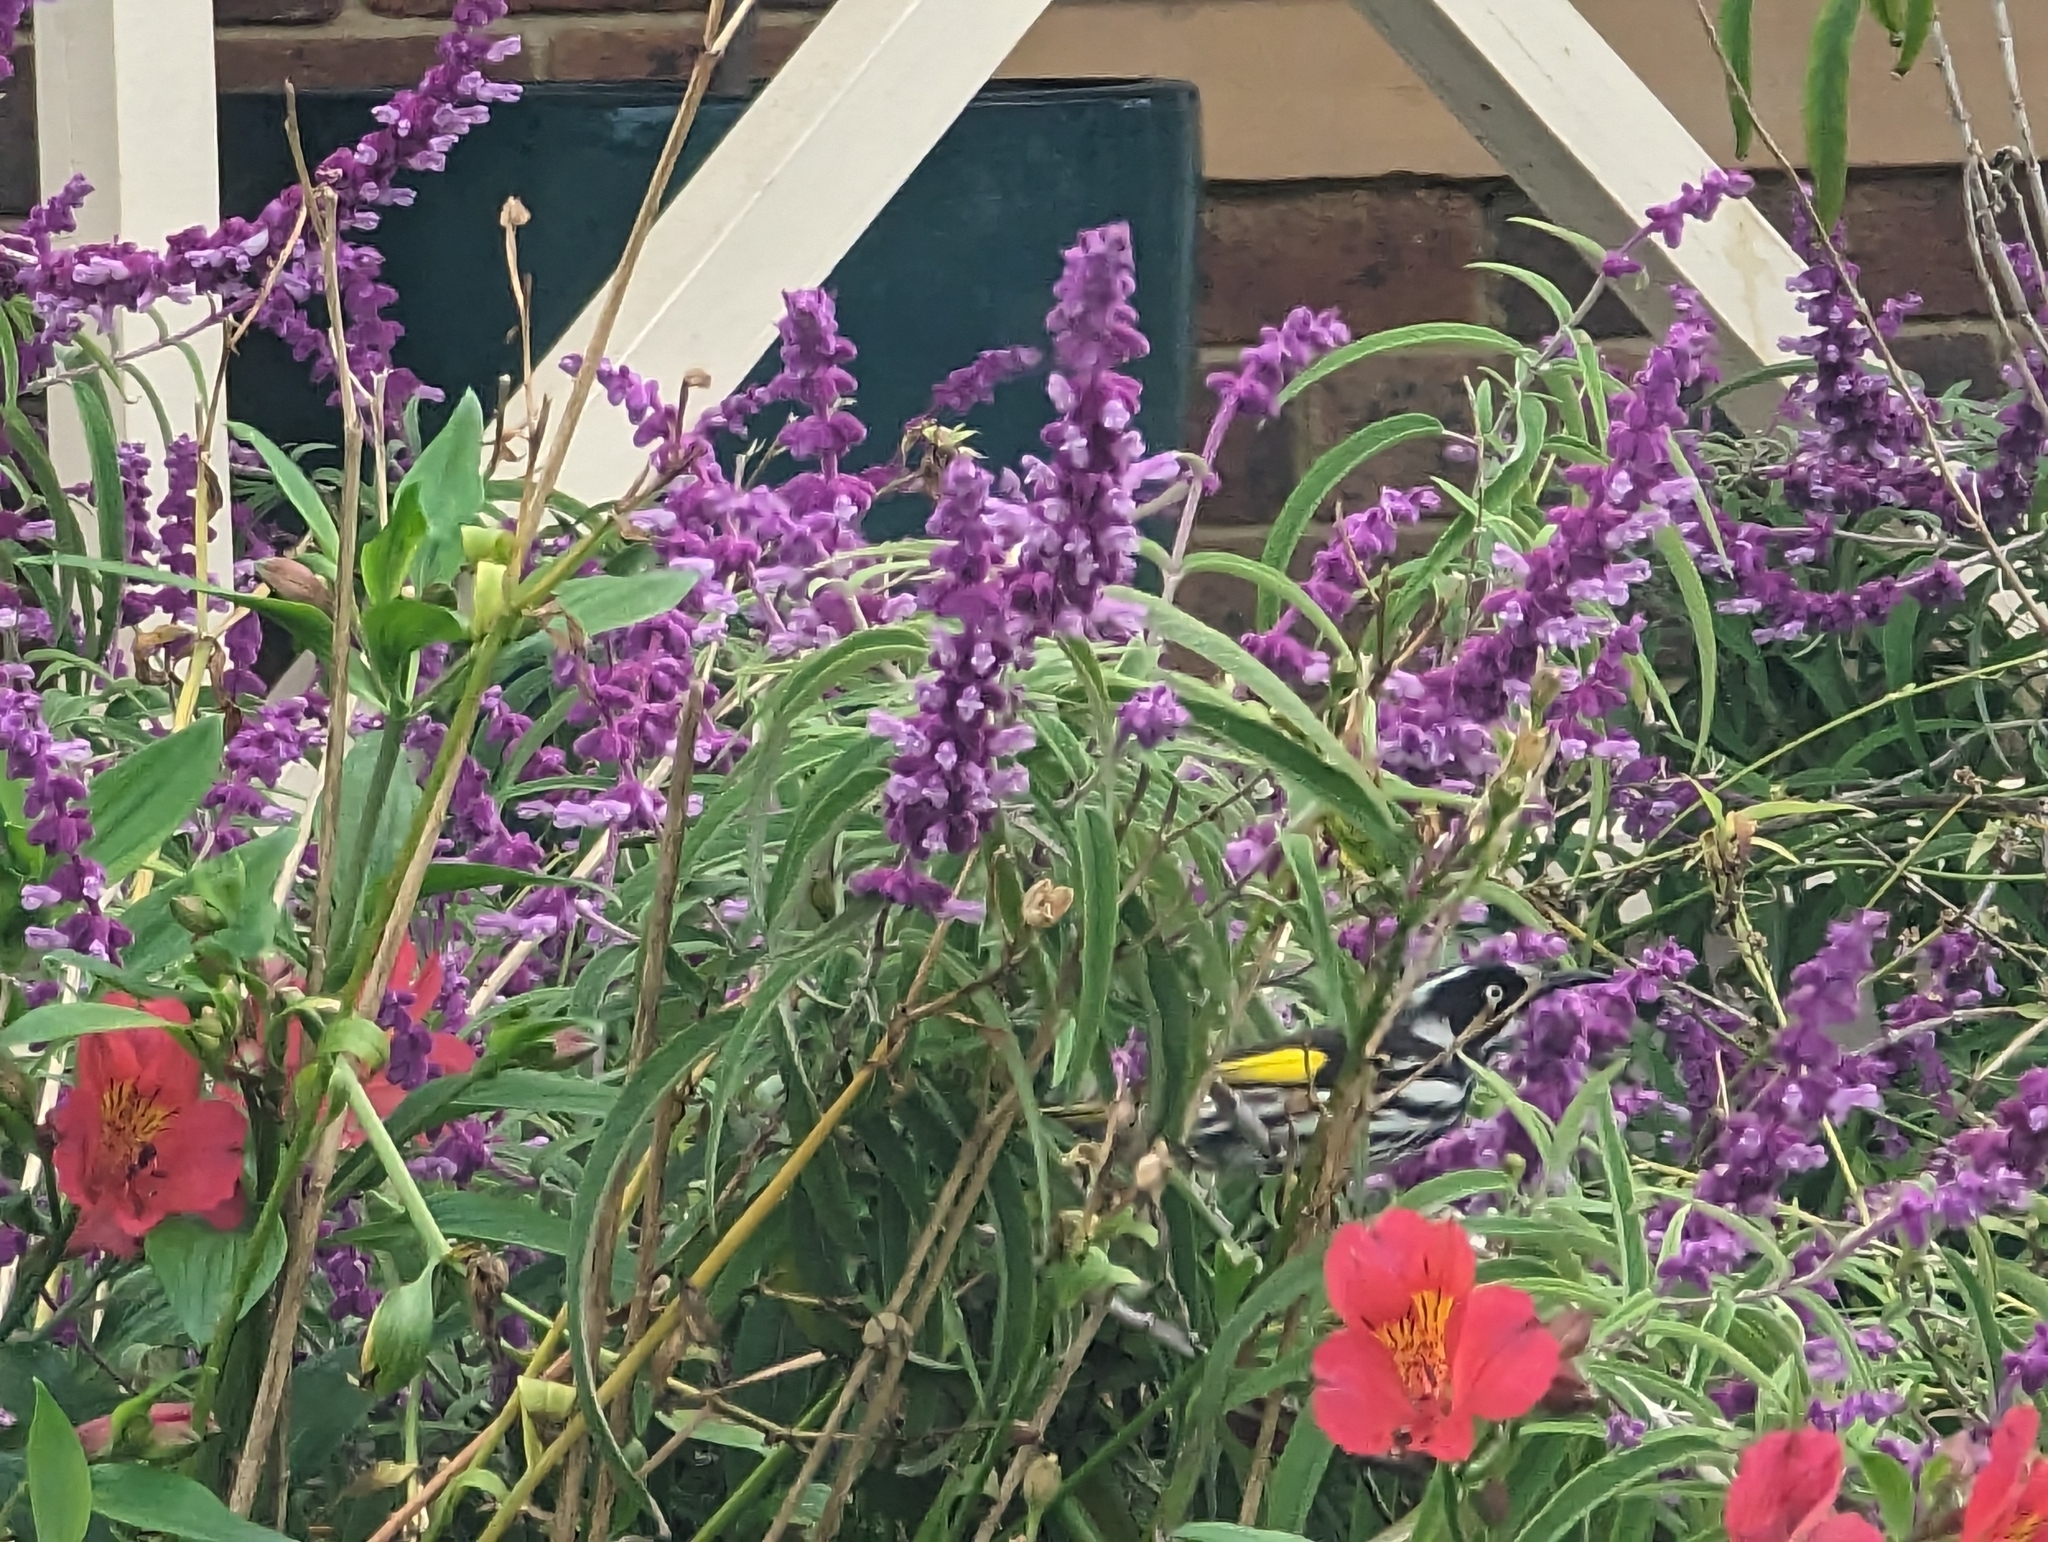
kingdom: Animalia
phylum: Chordata
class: Aves
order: Passeriformes
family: Meliphagidae
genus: Phylidonyris
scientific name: Phylidonyris novaehollandiae
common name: New holland honeyeater
